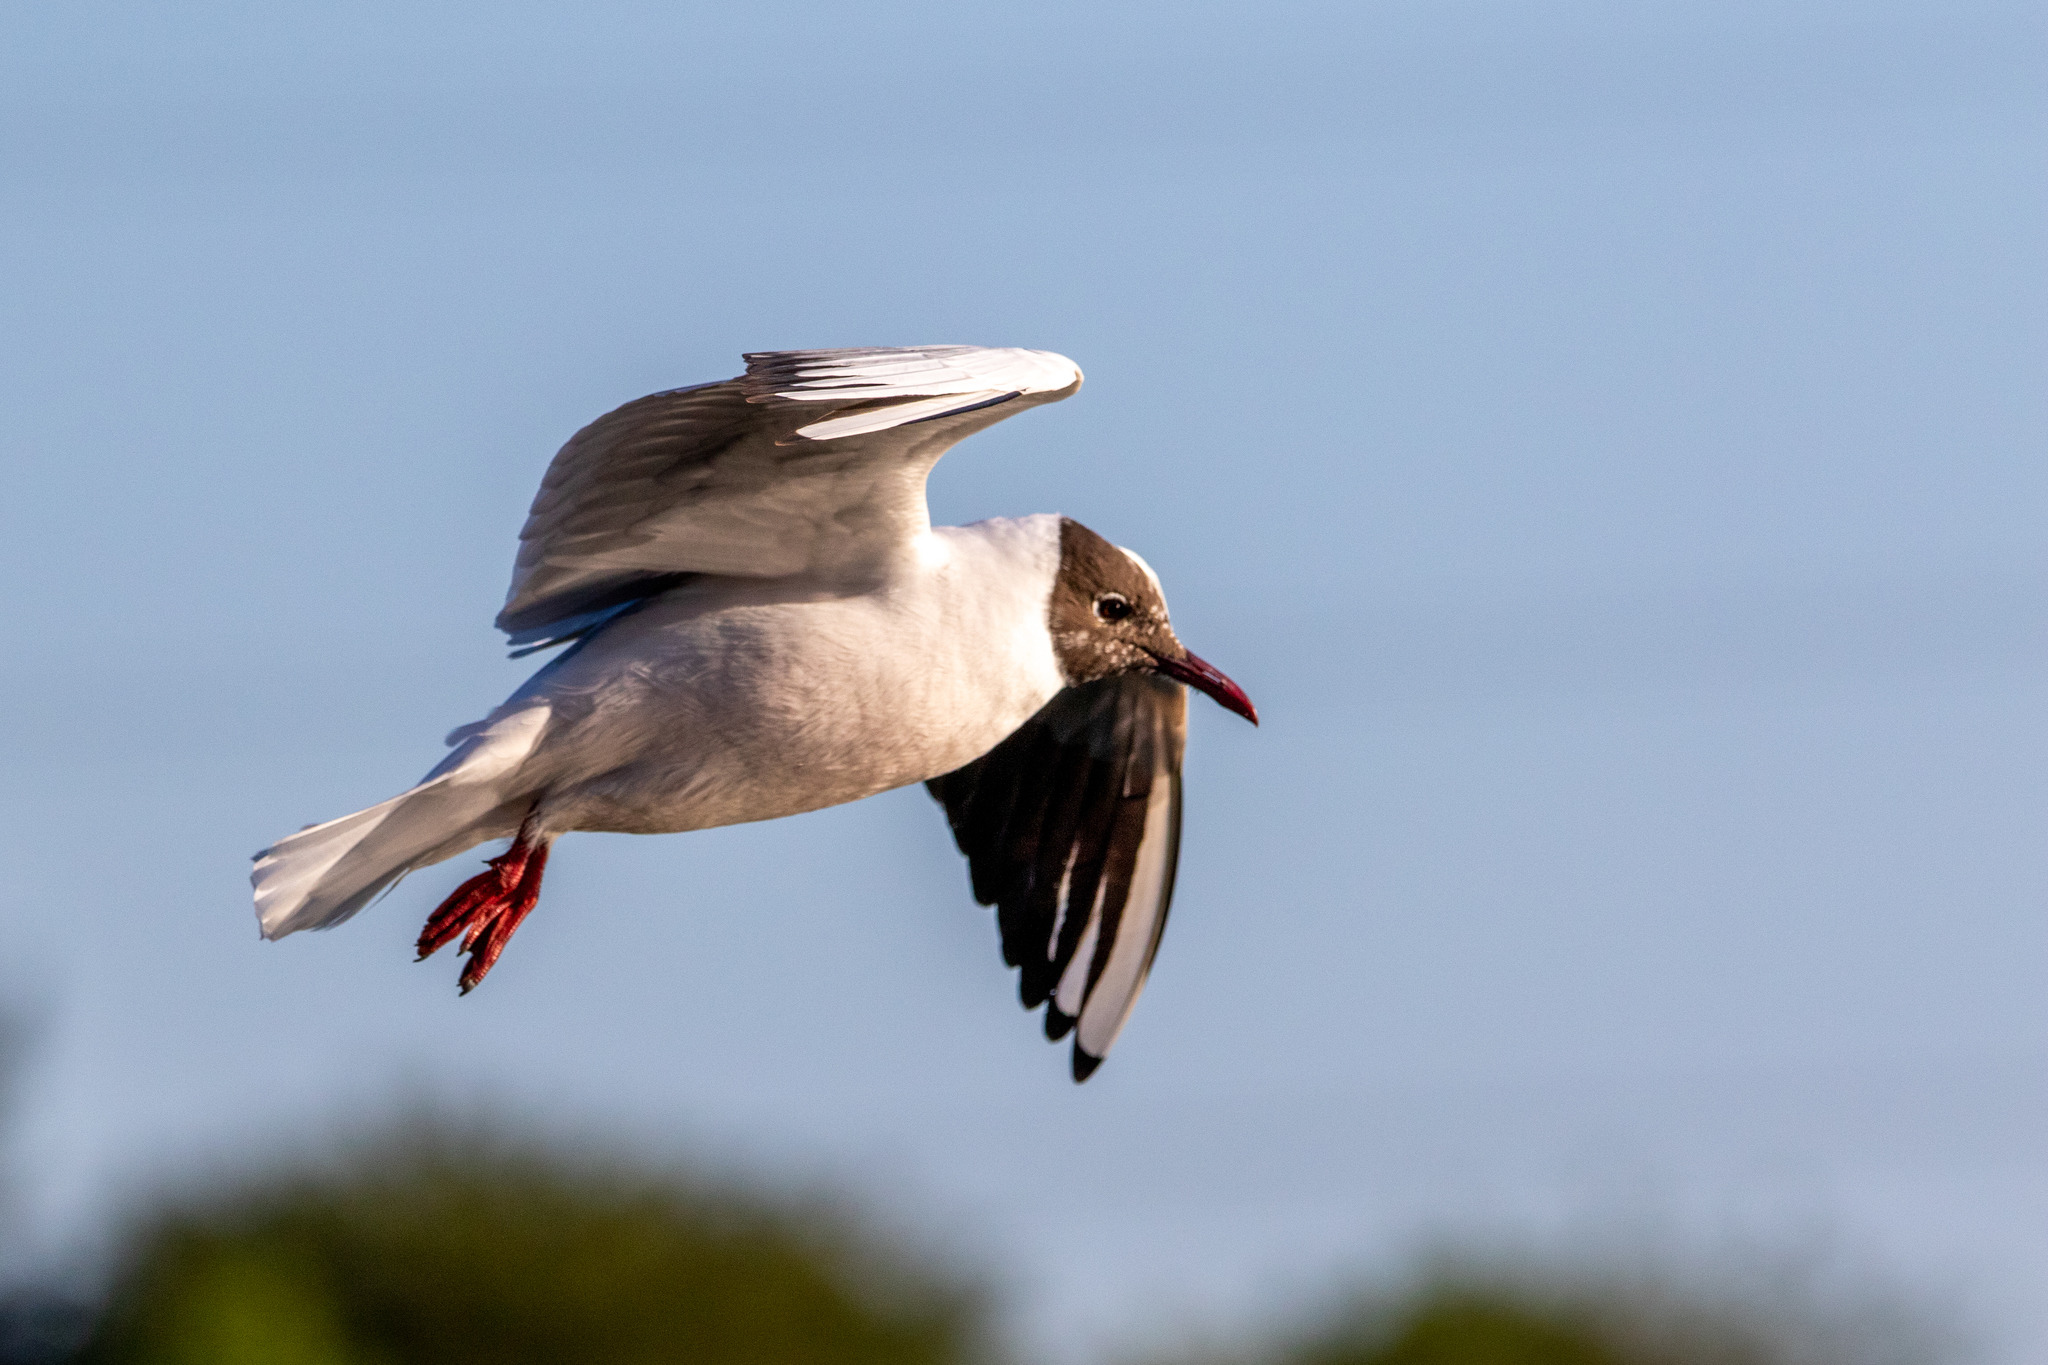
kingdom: Animalia
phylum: Chordata
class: Aves
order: Charadriiformes
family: Laridae
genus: Chroicocephalus
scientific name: Chroicocephalus ridibundus
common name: Black-headed gull
